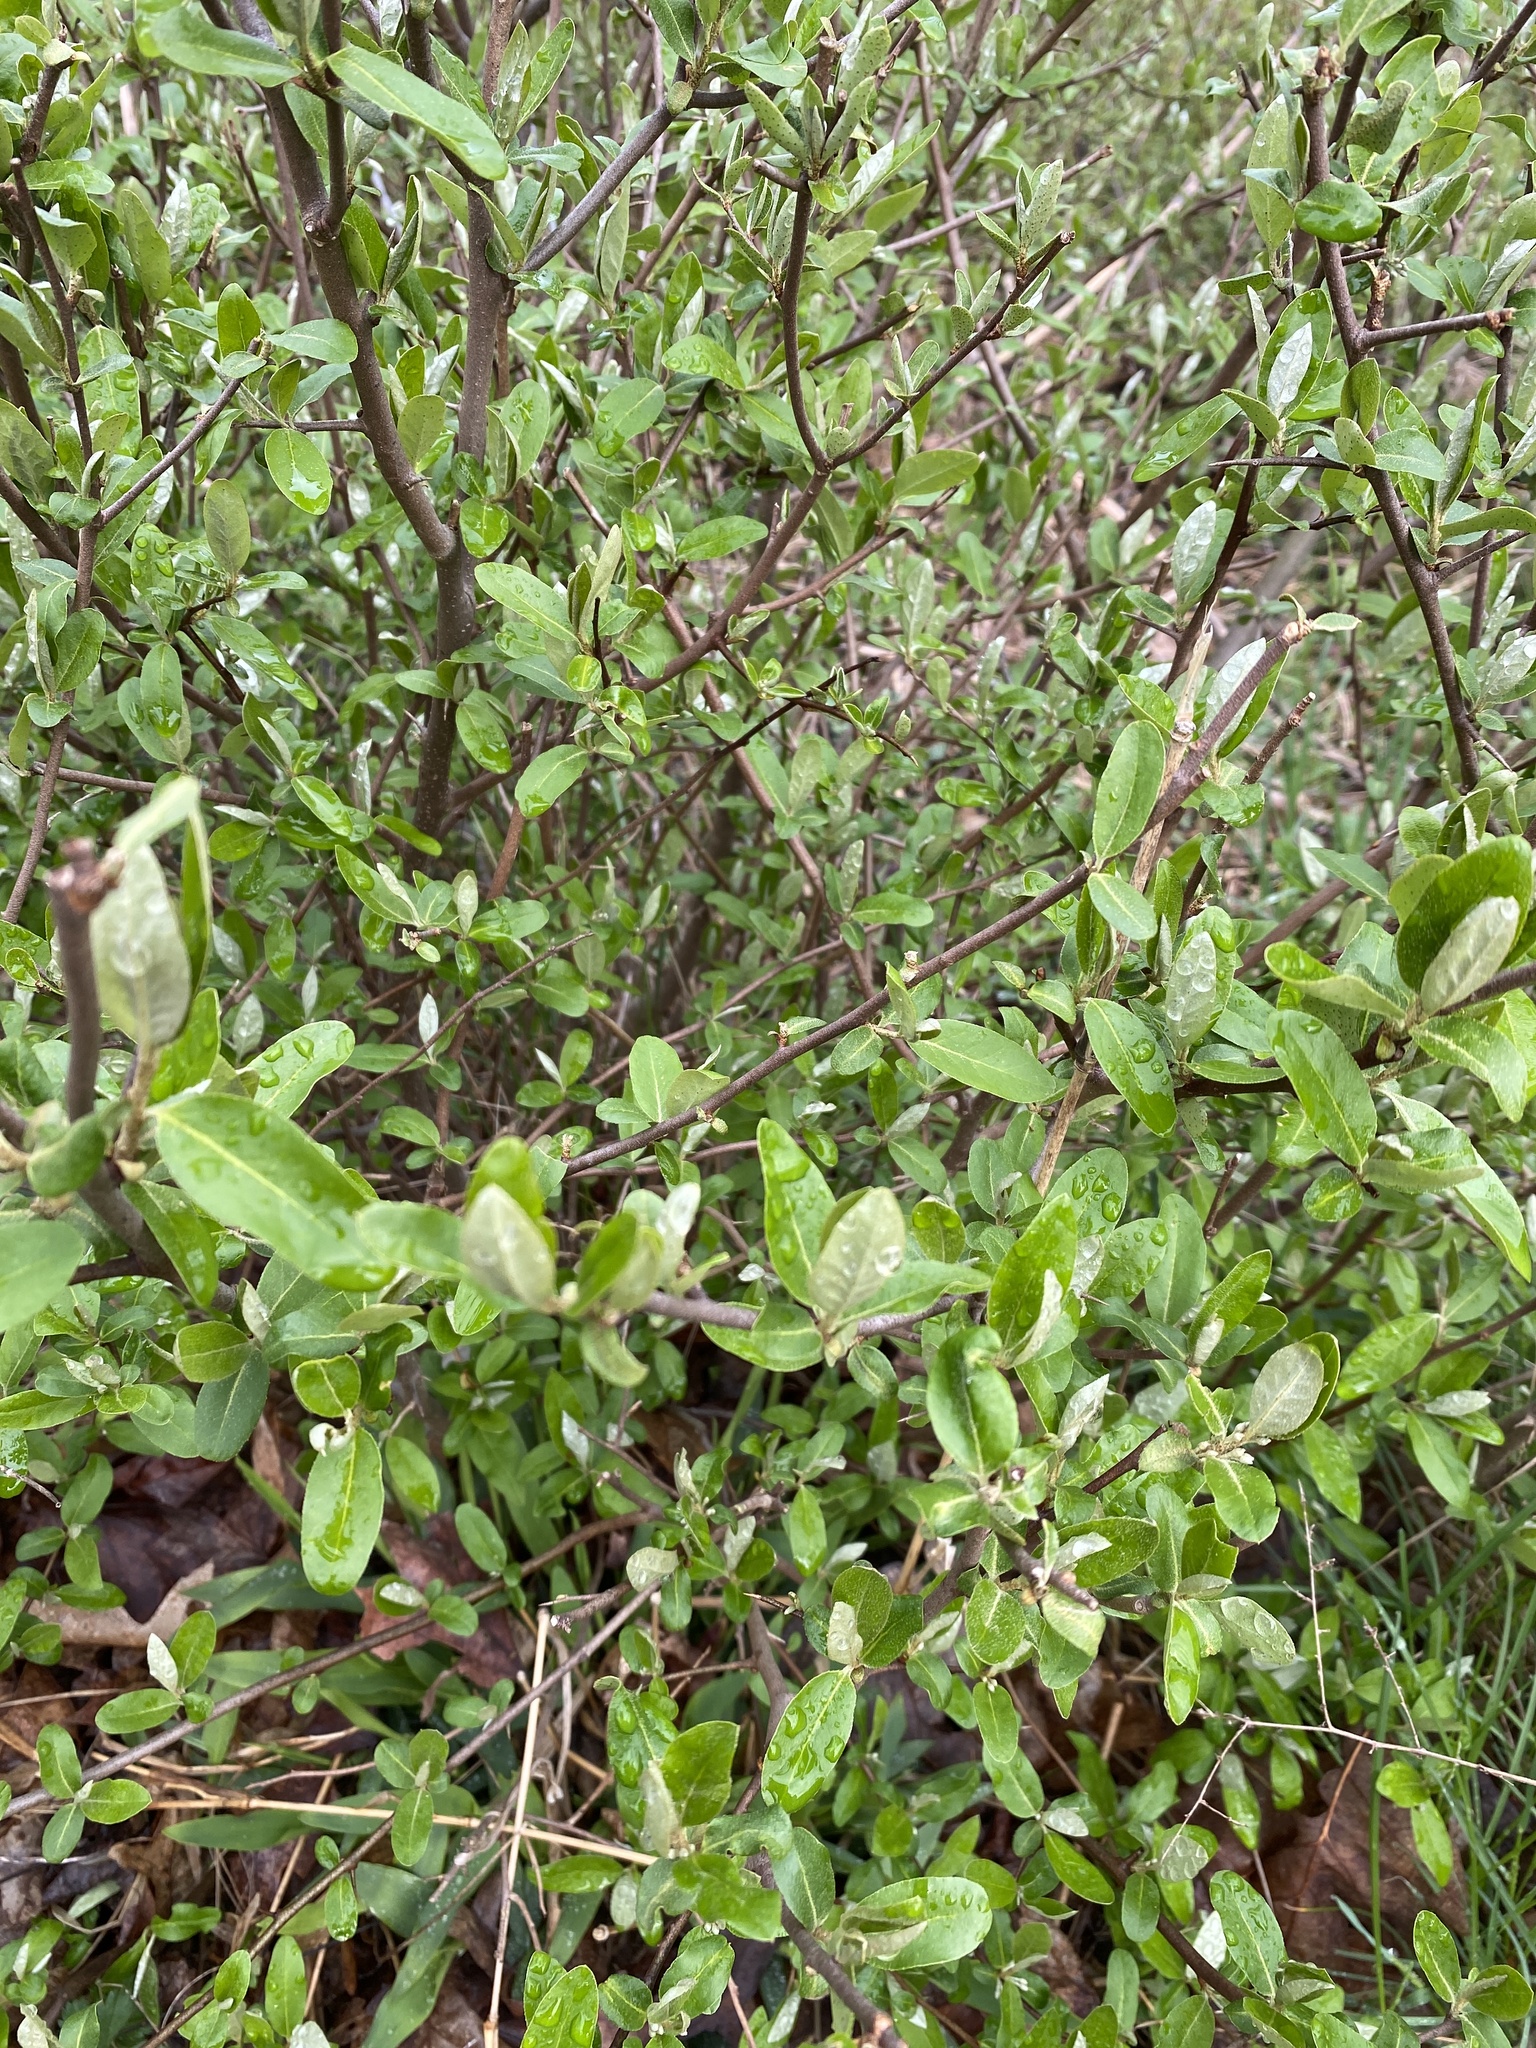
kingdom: Plantae
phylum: Tracheophyta
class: Magnoliopsida
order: Rosales
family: Elaeagnaceae
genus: Elaeagnus
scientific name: Elaeagnus umbellata
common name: Autumn olive
